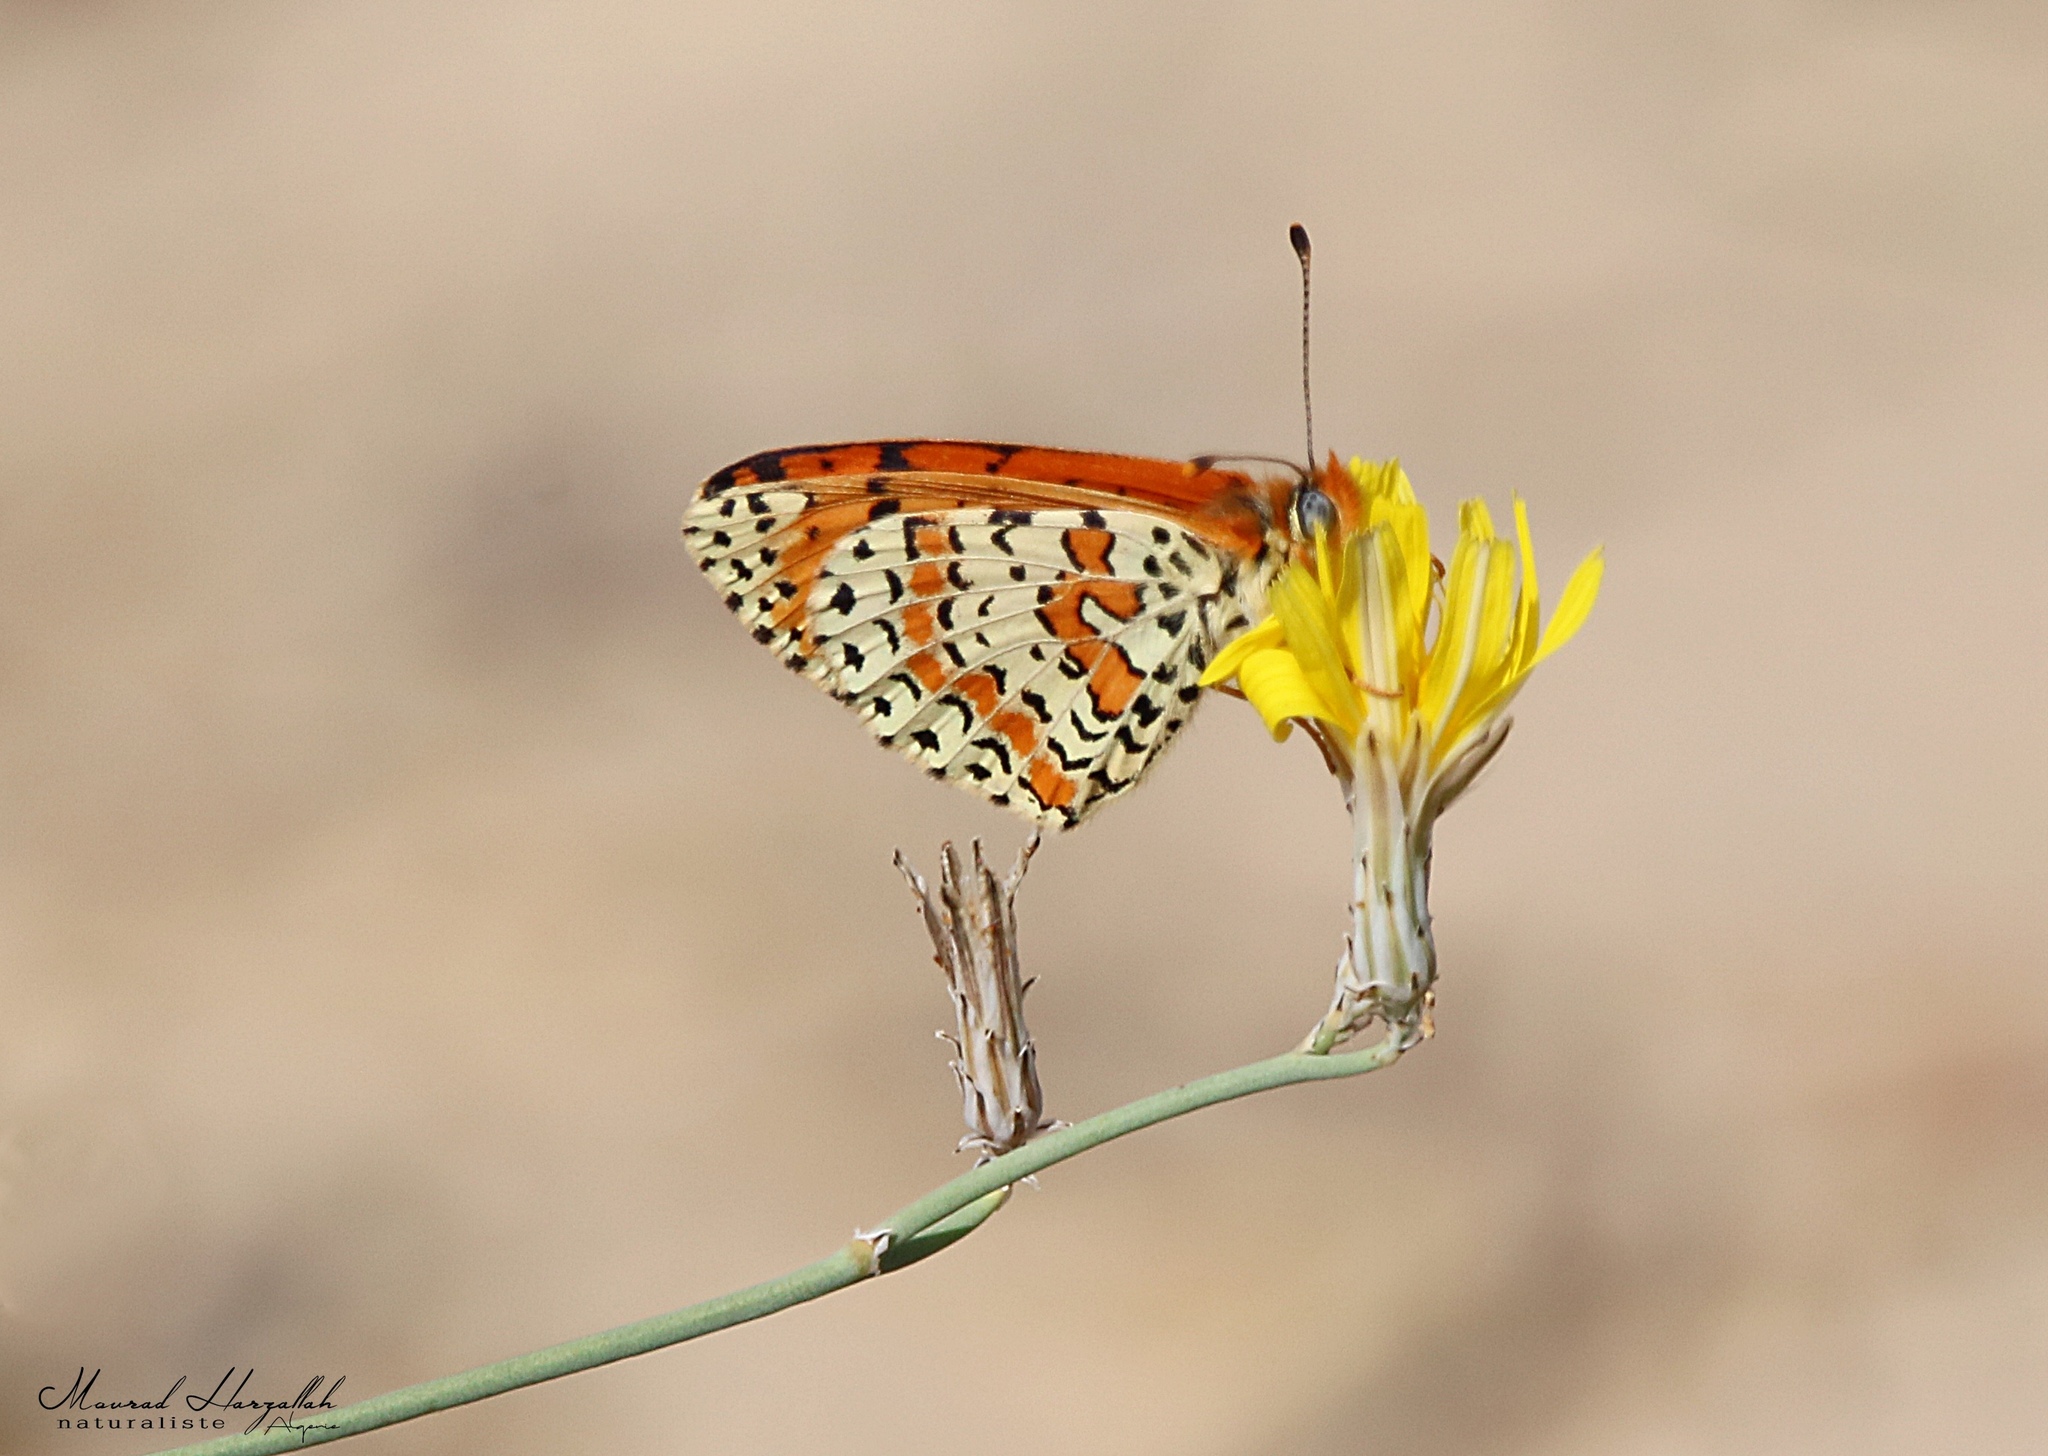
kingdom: Animalia
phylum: Arthropoda
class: Insecta
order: Lepidoptera
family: Nymphalidae
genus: Melitaea
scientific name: Melitaea didyma
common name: Spotted fritillary
